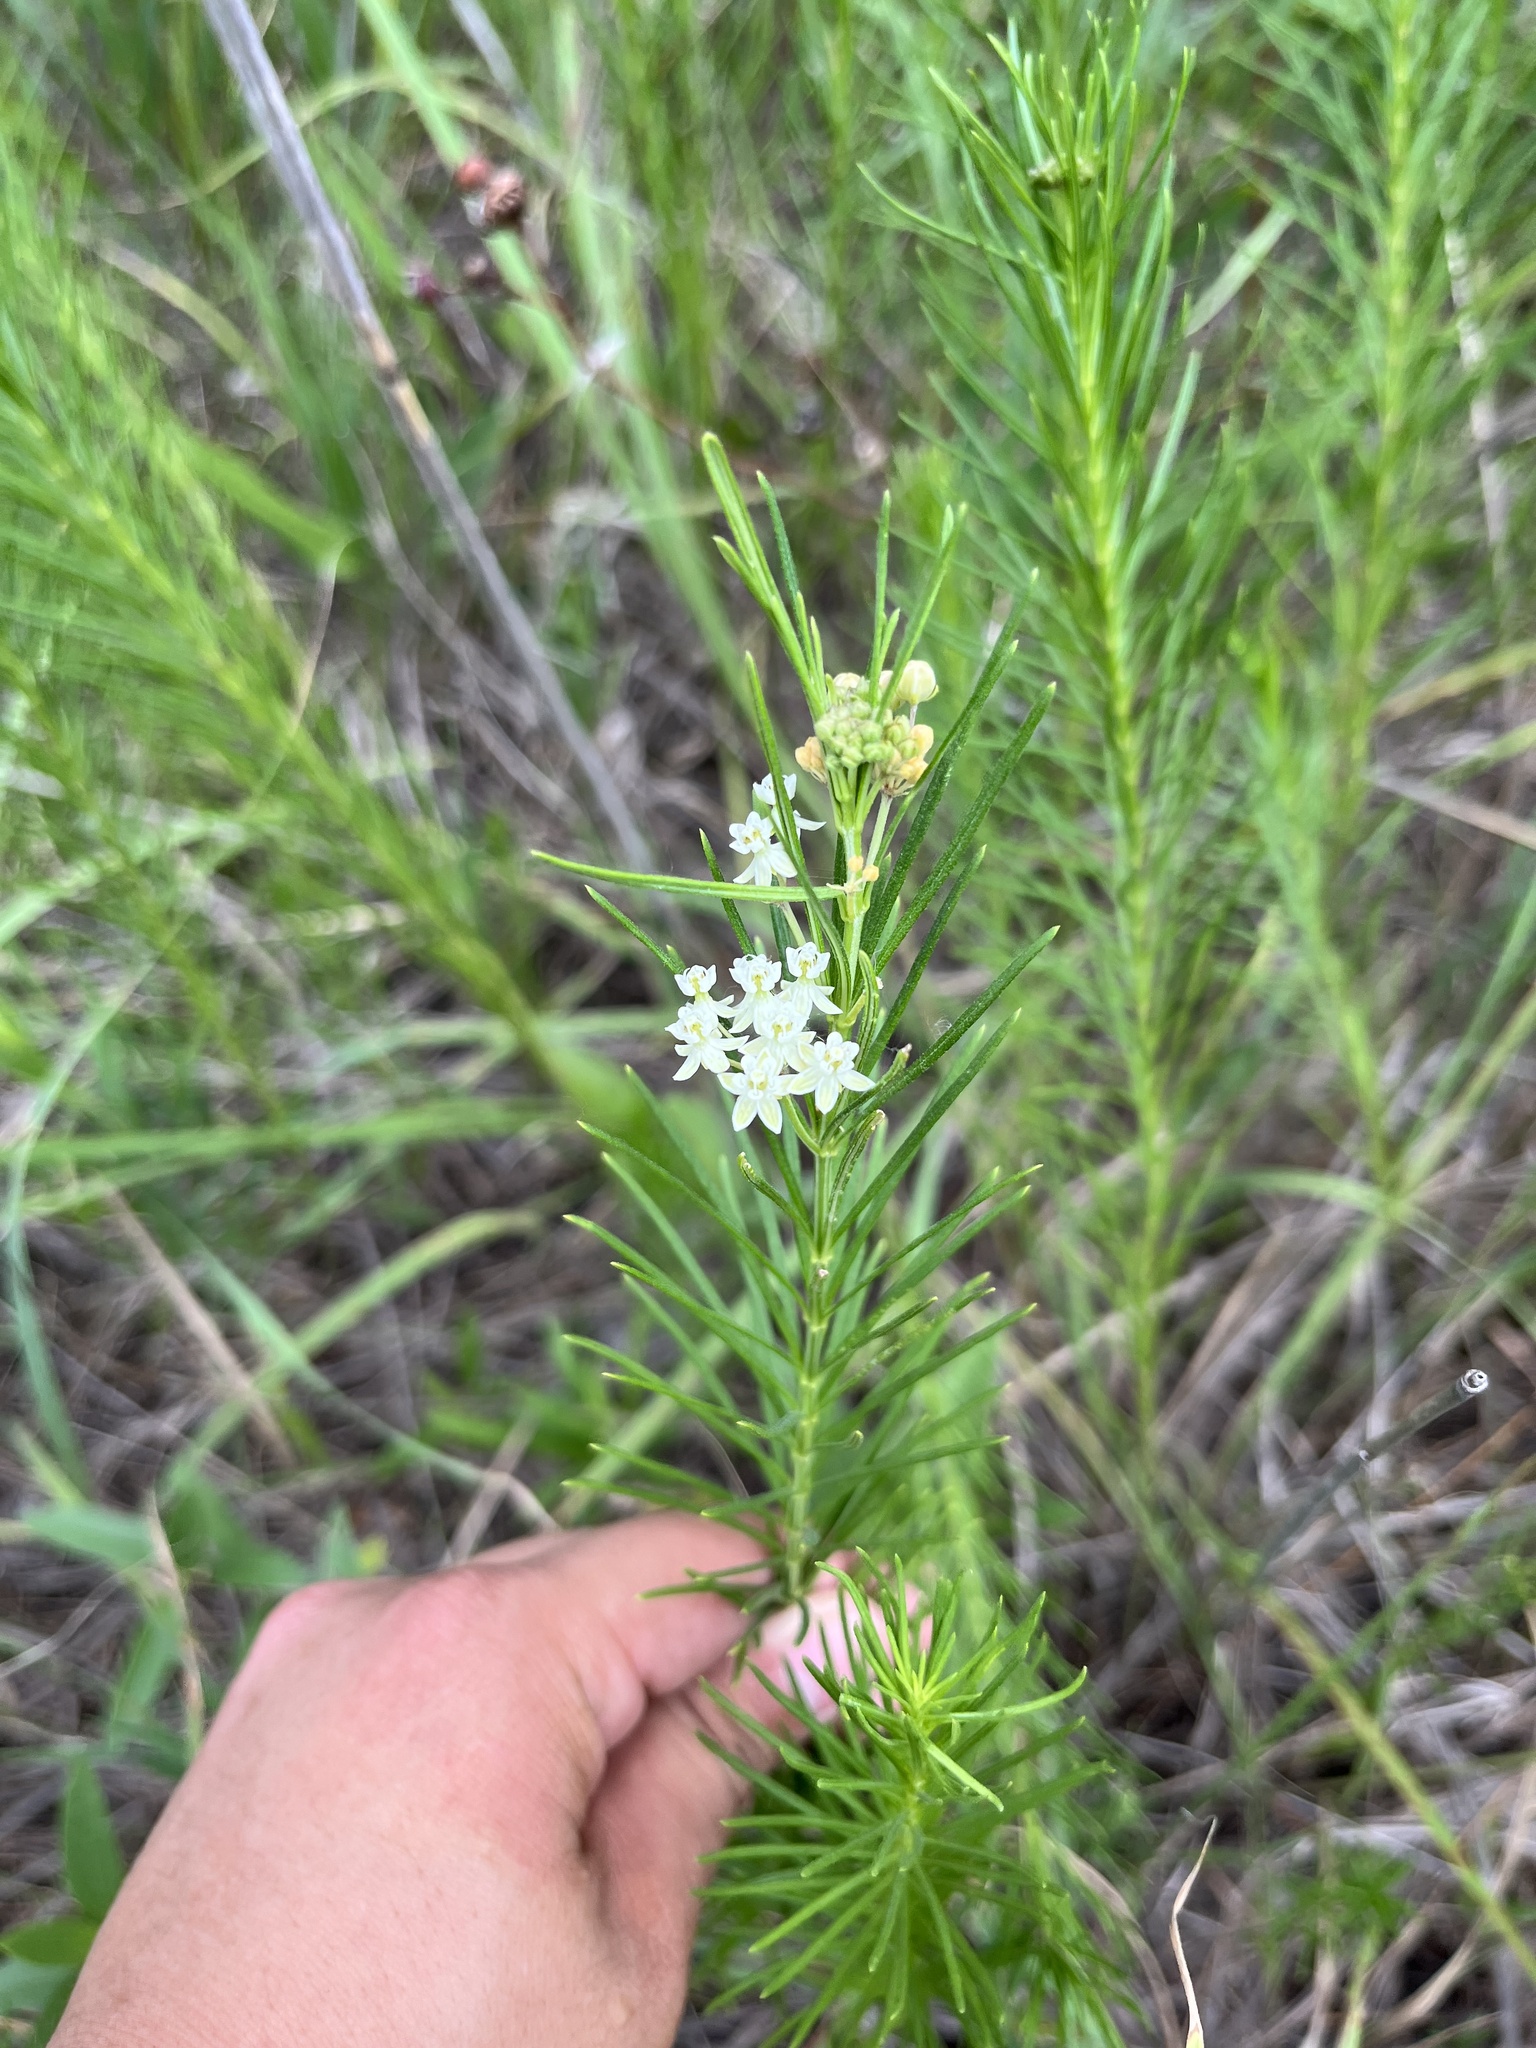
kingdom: Plantae
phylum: Tracheophyta
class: Magnoliopsida
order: Gentianales
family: Apocynaceae
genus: Asclepias
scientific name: Asclepias verticillata
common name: Eastern whorled milkweed
